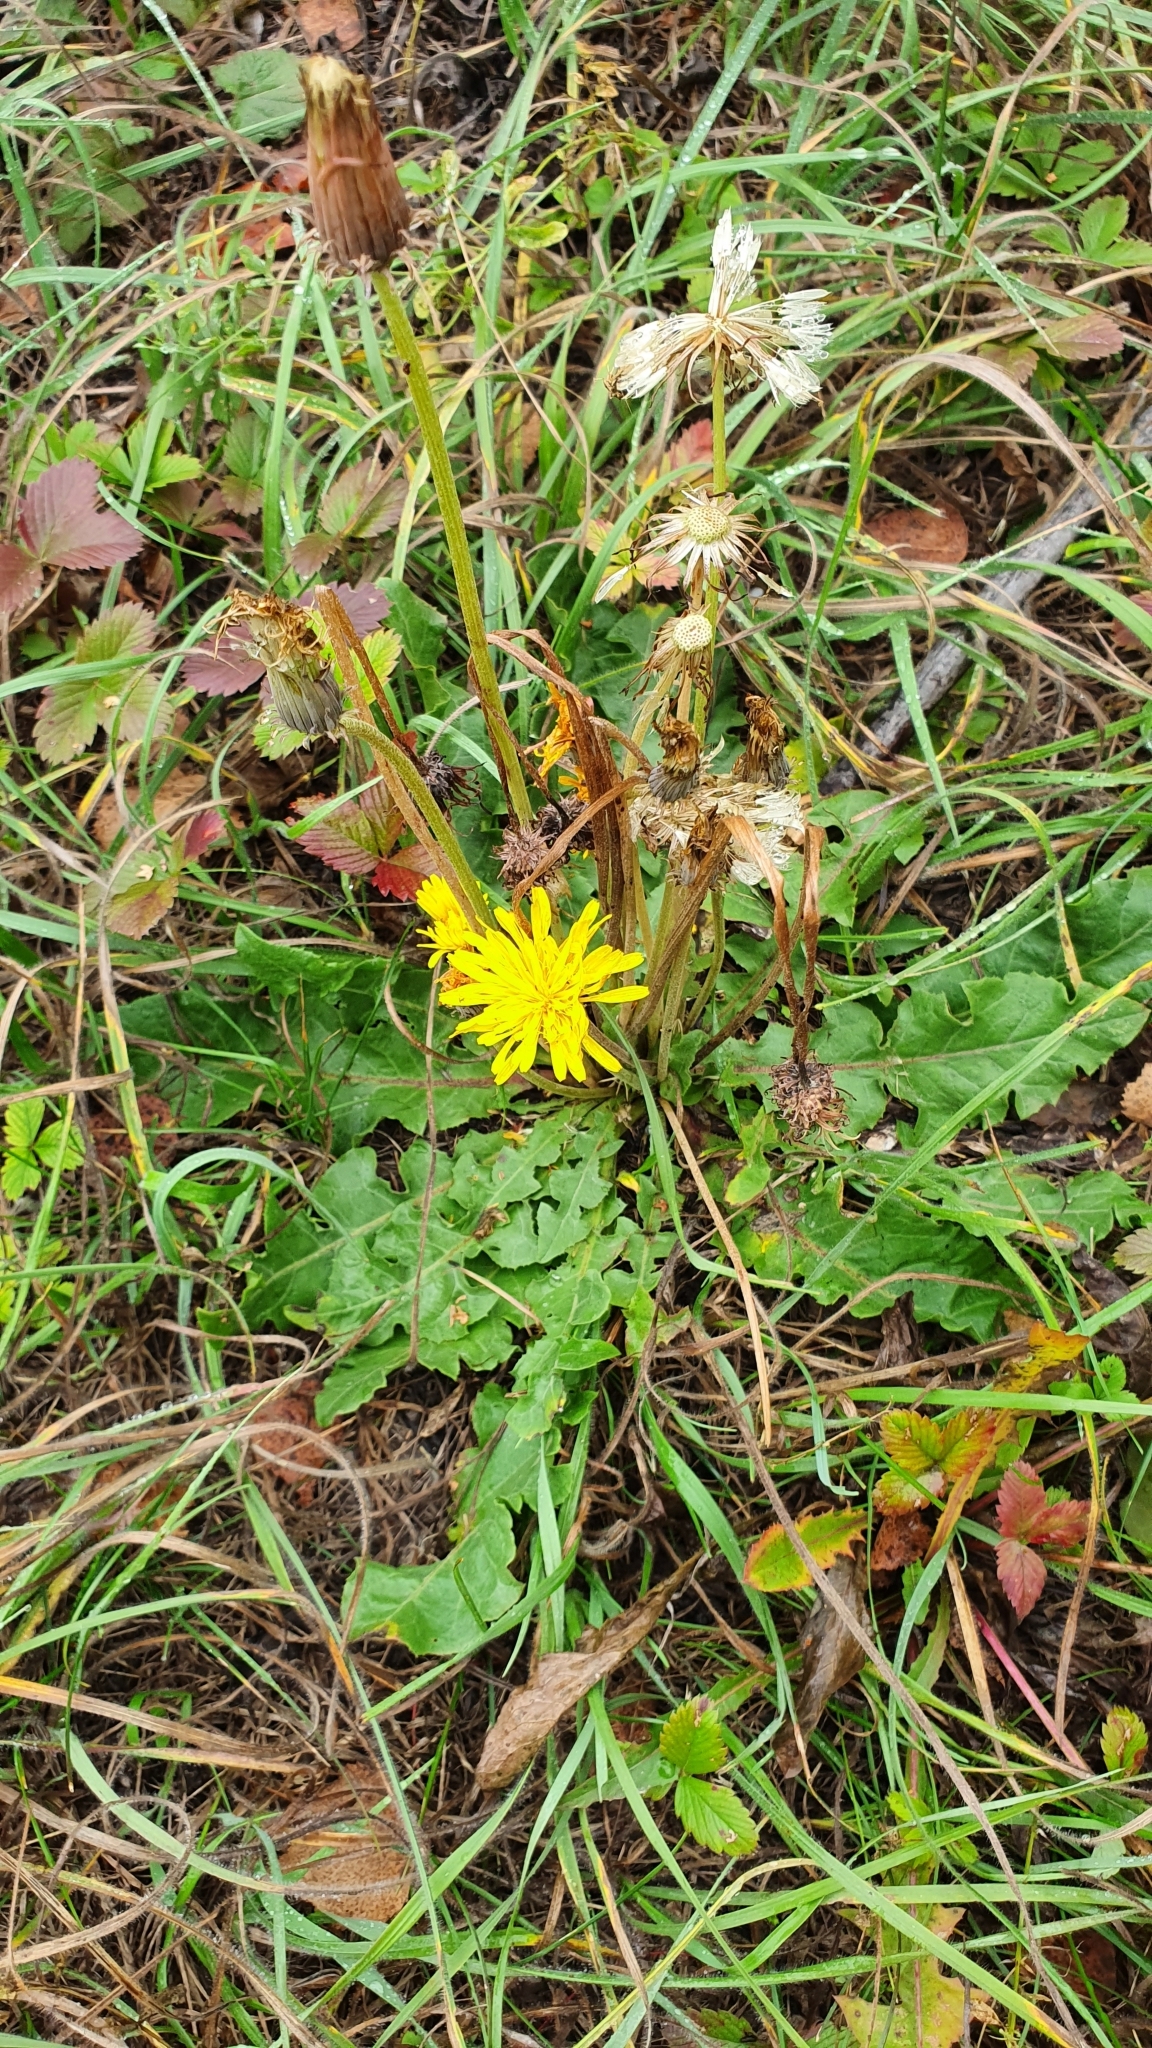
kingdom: Plantae
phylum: Tracheophyta
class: Magnoliopsida
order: Asterales
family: Asteraceae
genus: Taraxacum
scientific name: Taraxacum serotinum
